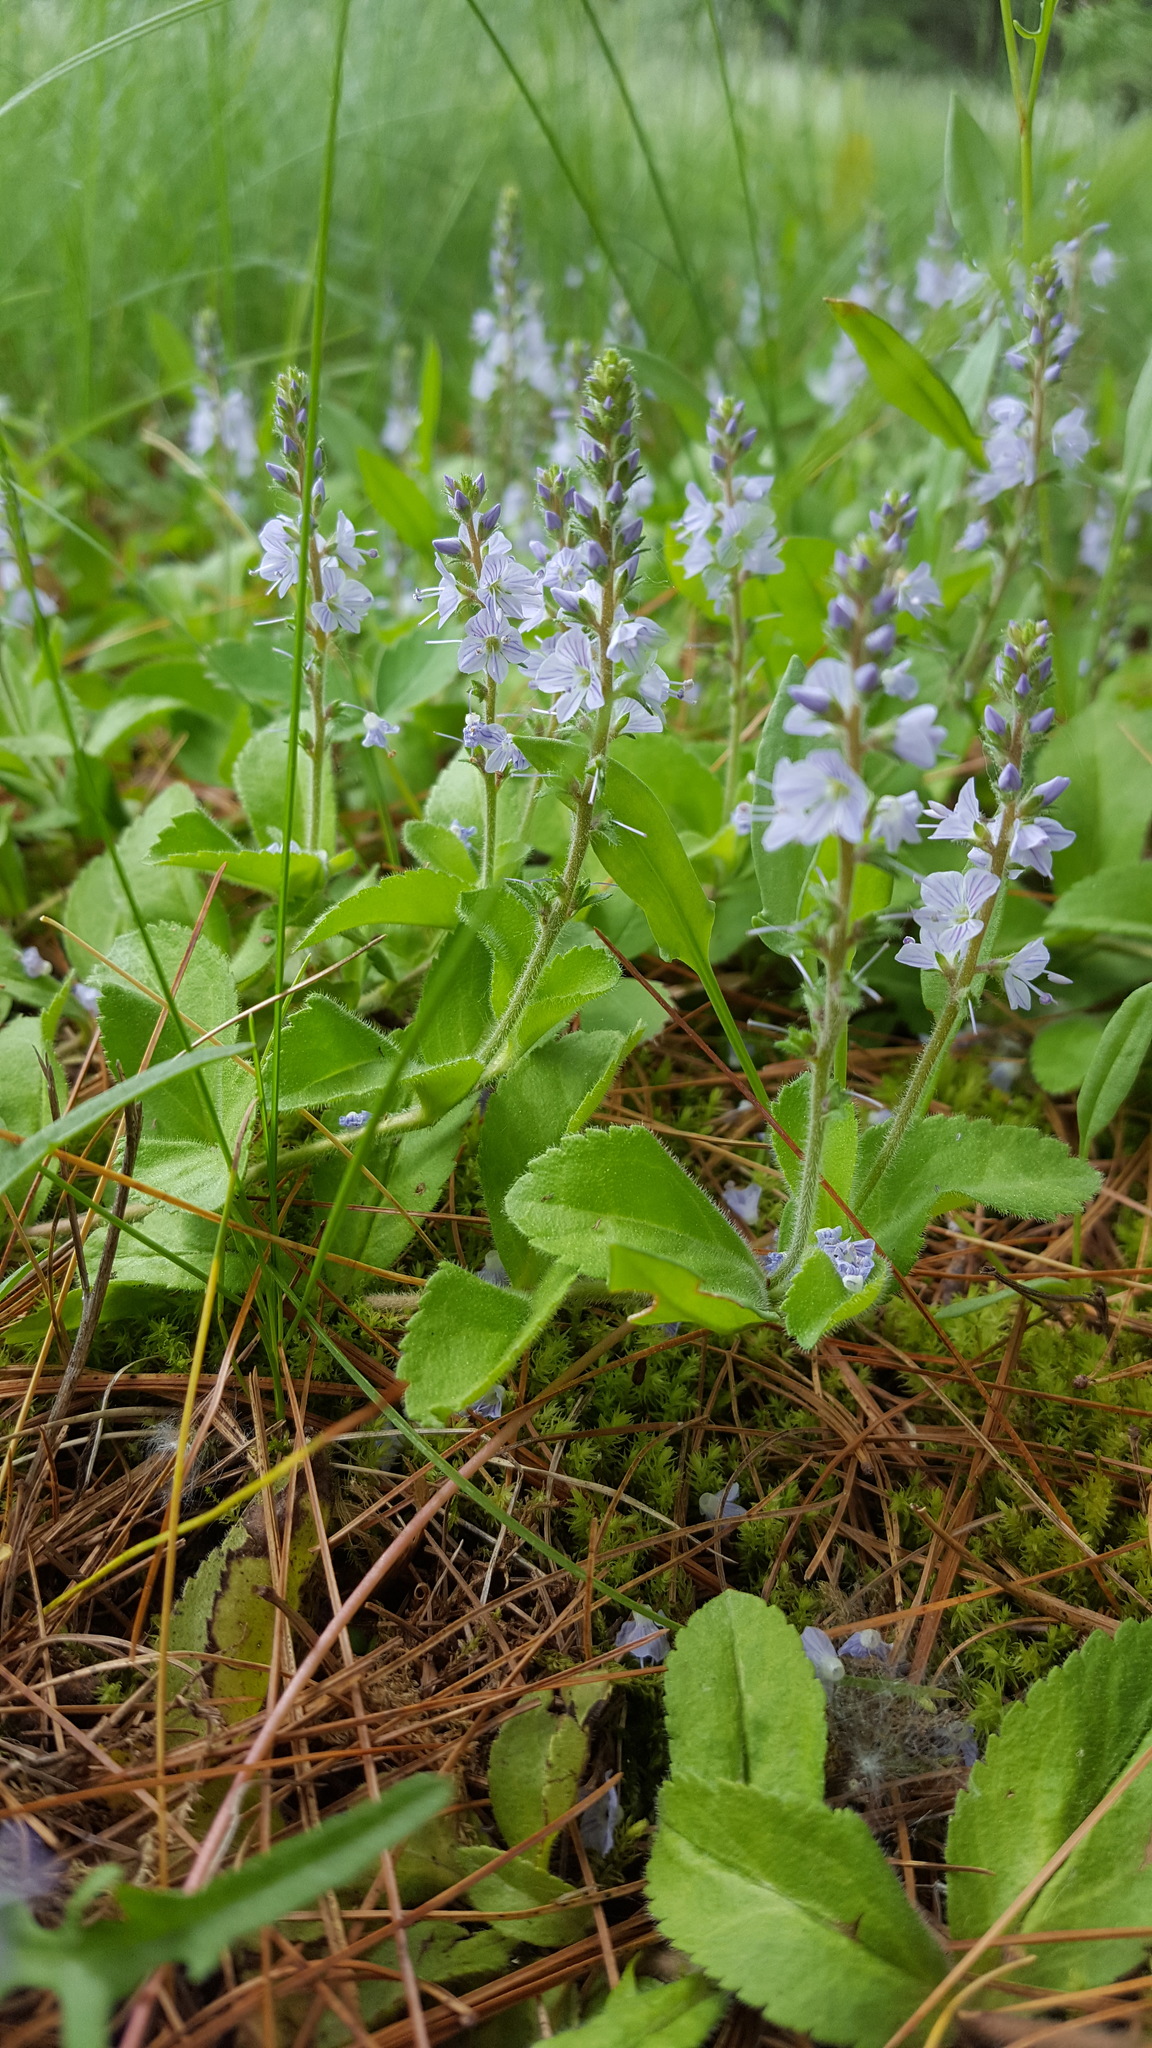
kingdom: Plantae
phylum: Tracheophyta
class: Magnoliopsida
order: Lamiales
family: Plantaginaceae
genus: Veronica
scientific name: Veronica officinalis
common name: Common speedwell
